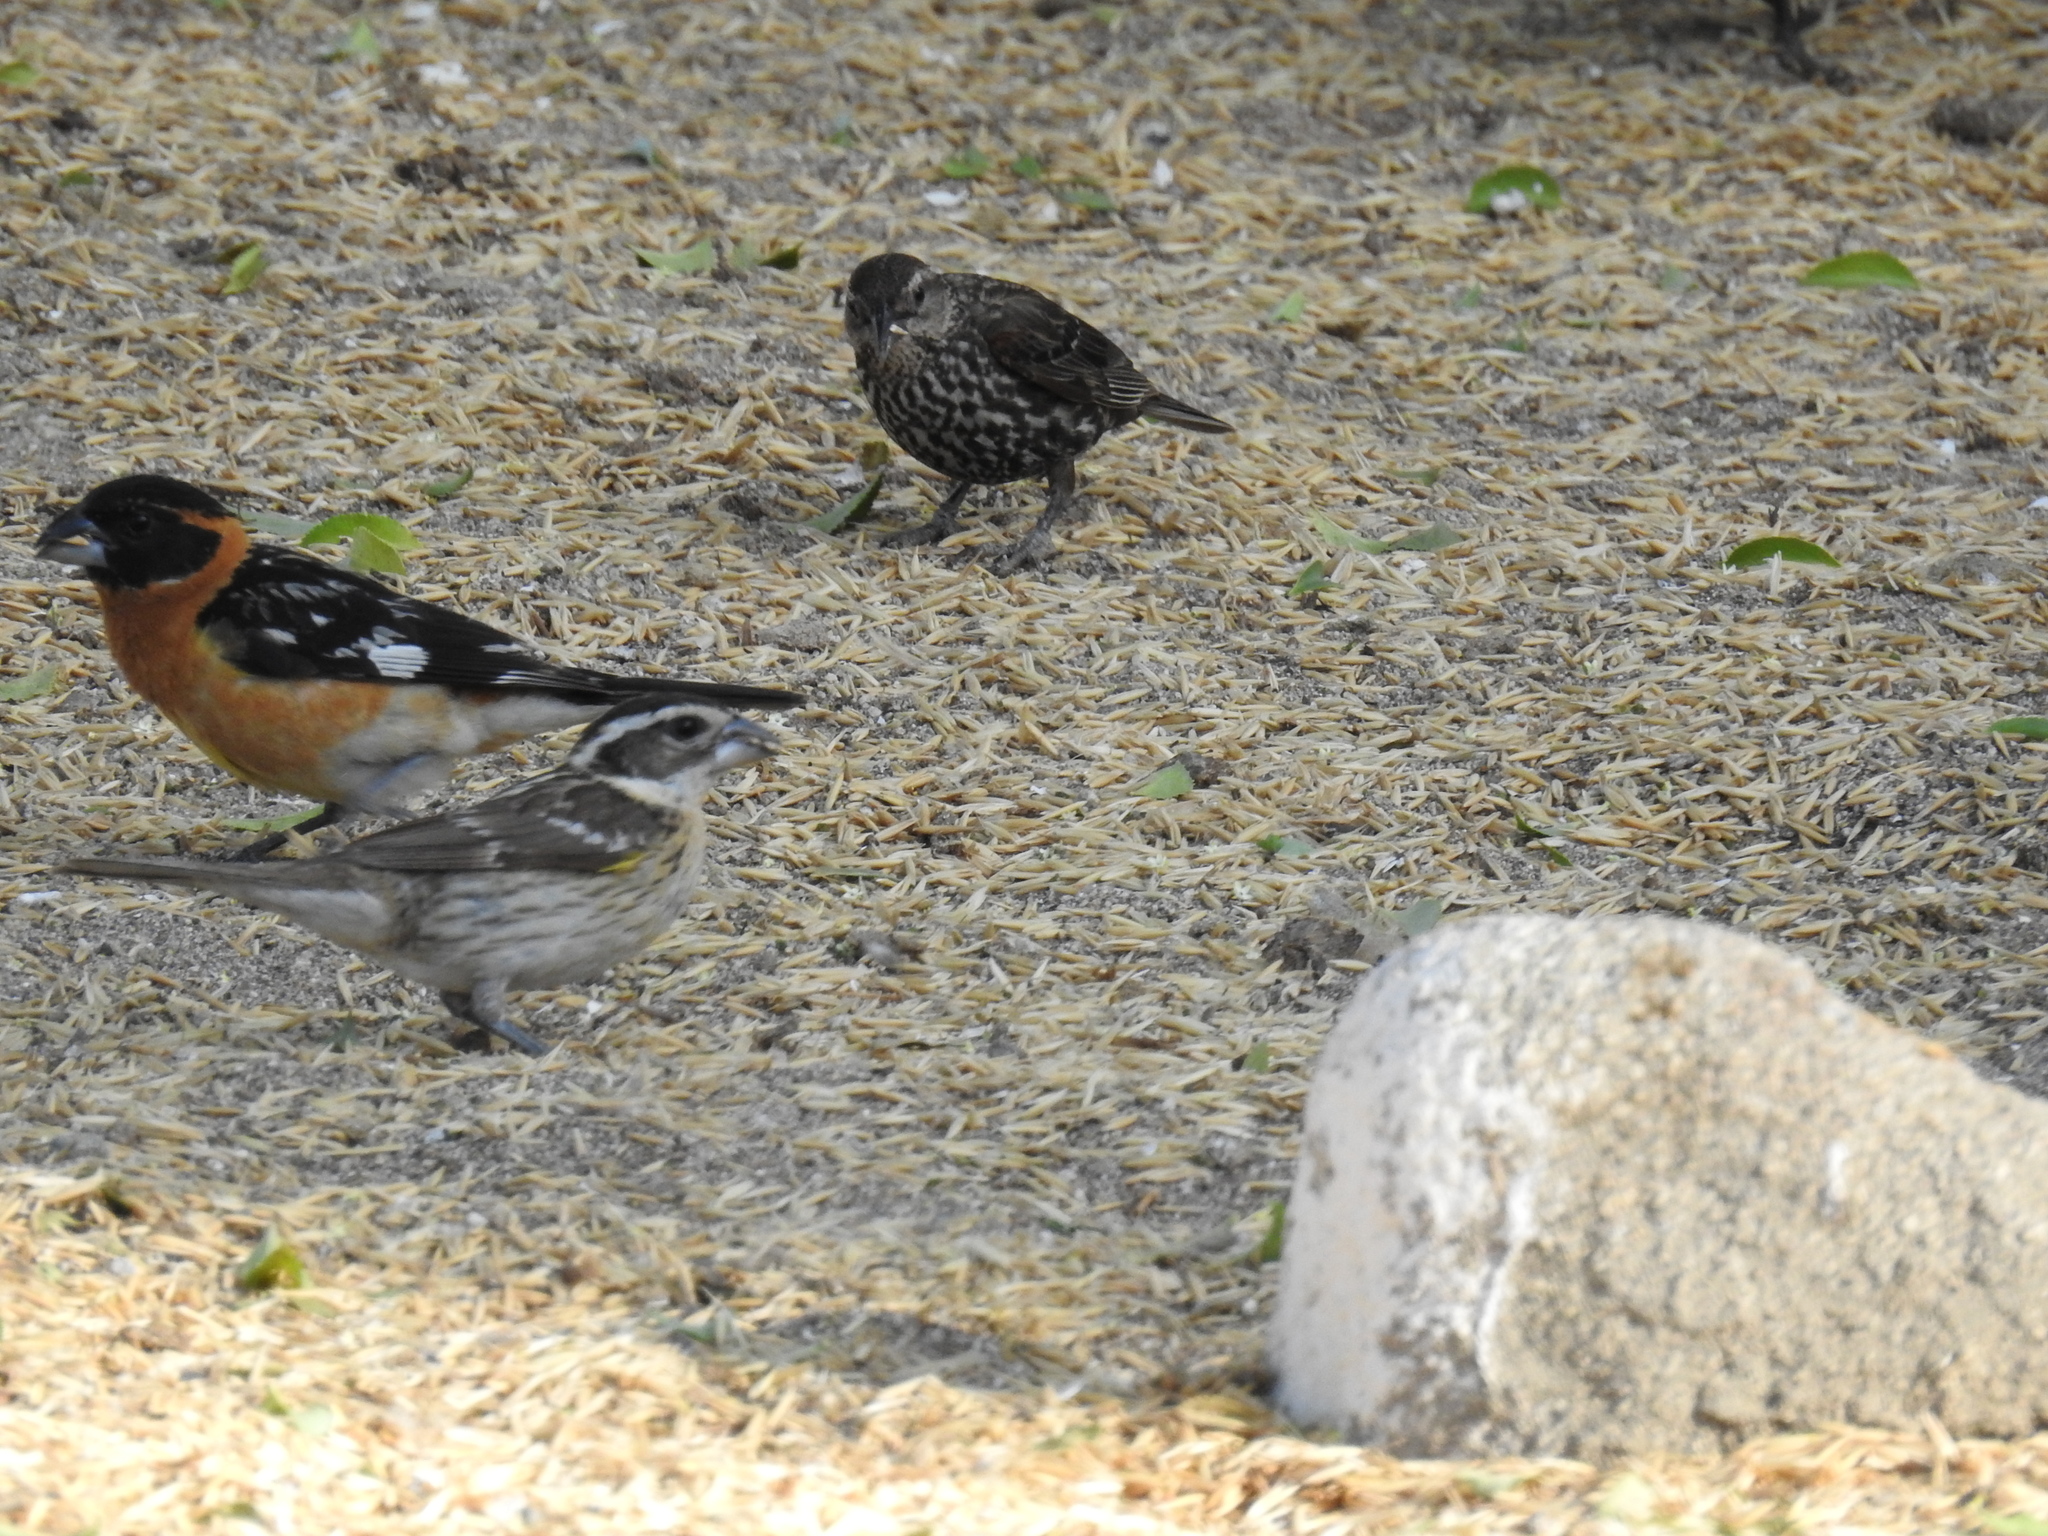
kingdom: Animalia
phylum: Chordata
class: Aves
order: Passeriformes
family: Cardinalidae
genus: Pheucticus
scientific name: Pheucticus melanocephalus
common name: Black-headed grosbeak
